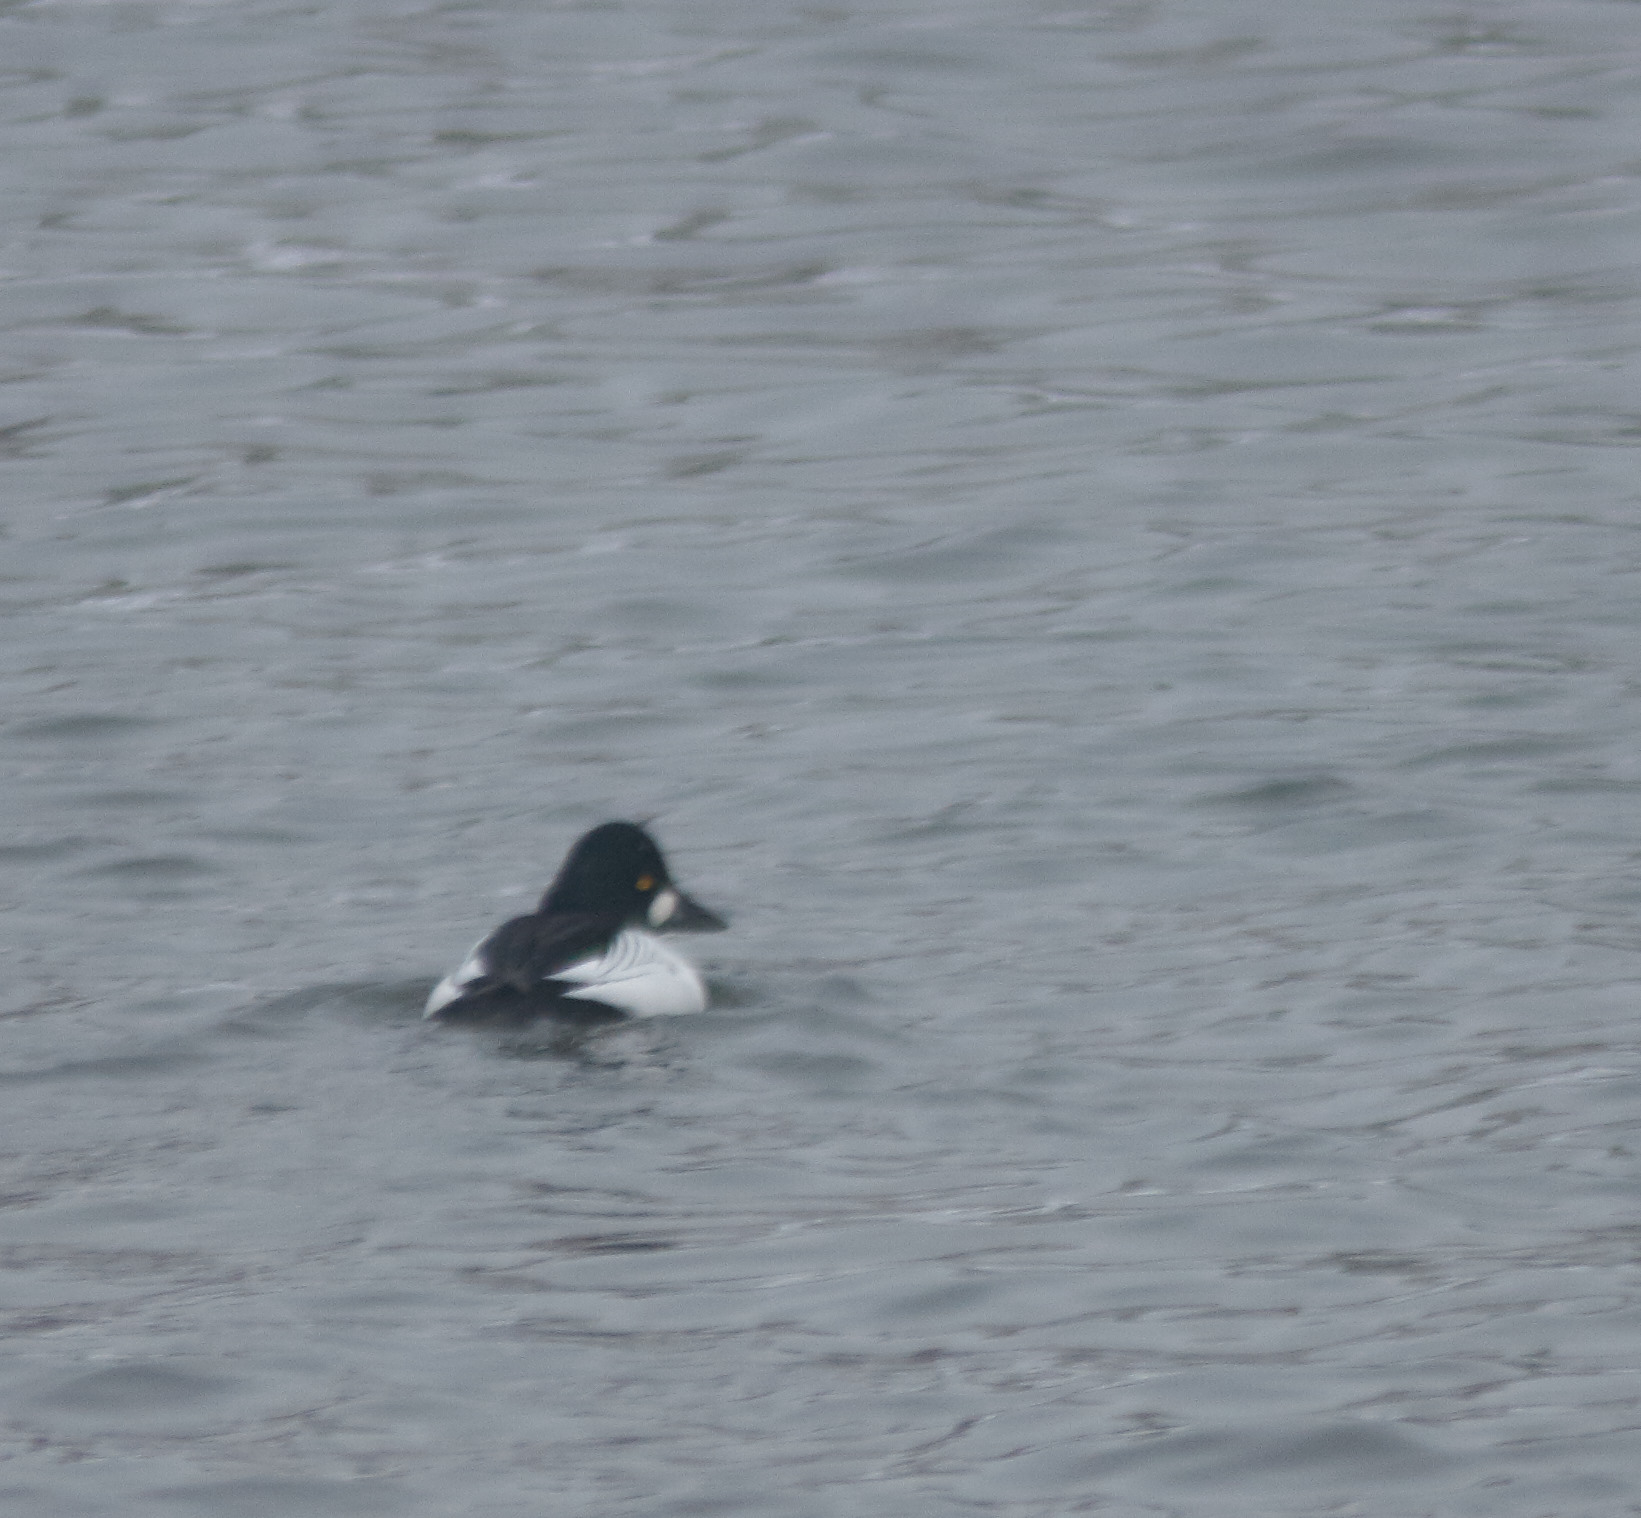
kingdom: Animalia
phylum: Chordata
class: Aves
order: Anseriformes
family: Anatidae
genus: Bucephala
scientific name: Bucephala clangula
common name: Common goldeneye
